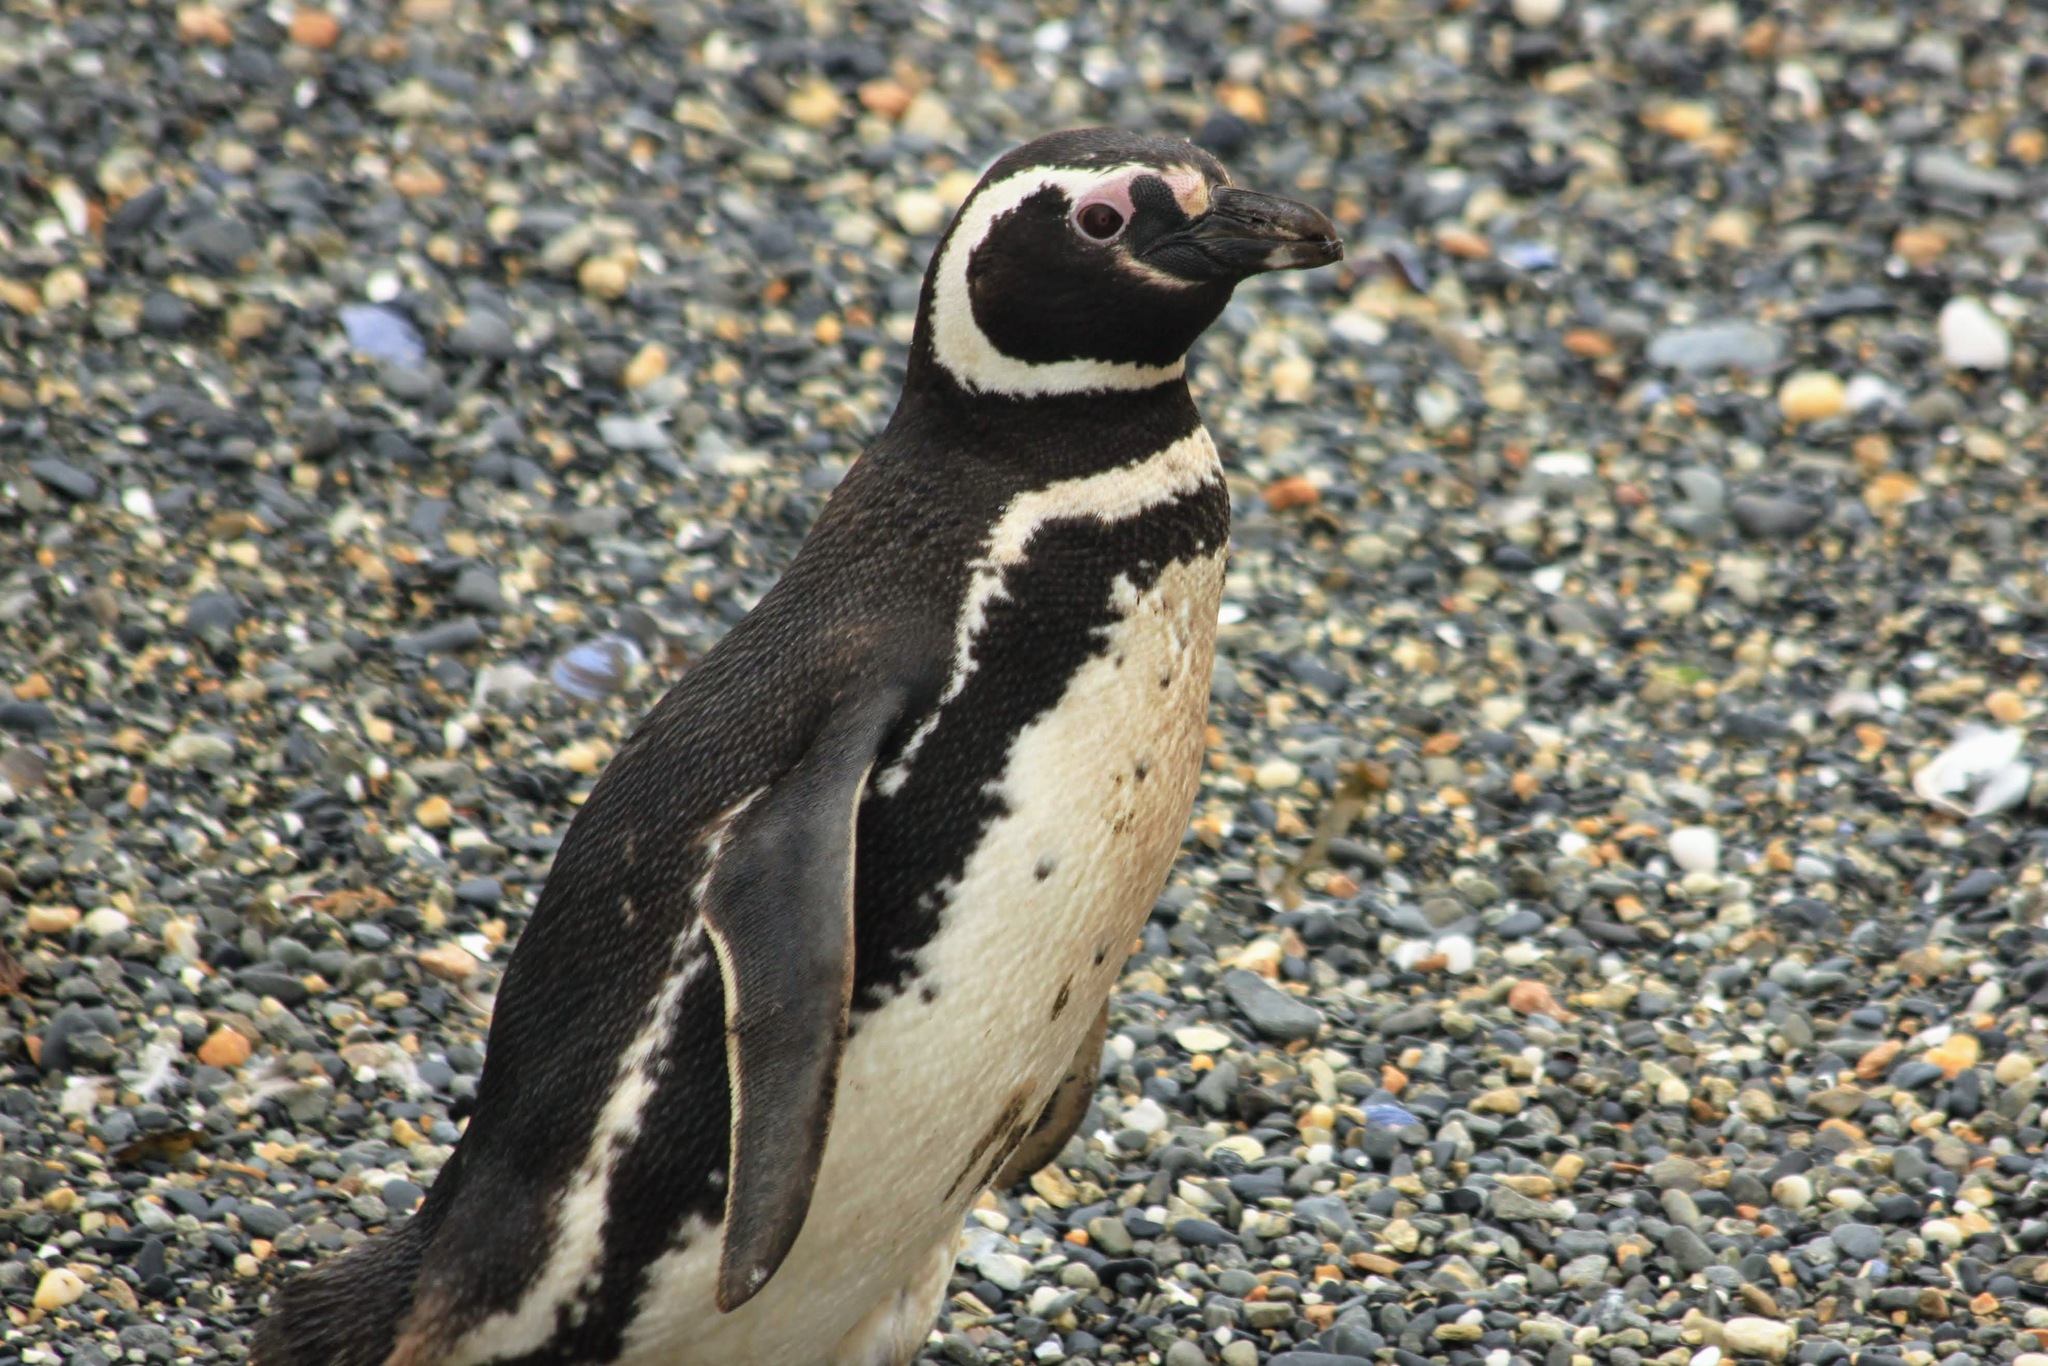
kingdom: Animalia
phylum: Chordata
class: Aves
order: Sphenisciformes
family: Spheniscidae
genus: Spheniscus
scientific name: Spheniscus magellanicus
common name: Magellanic penguin
